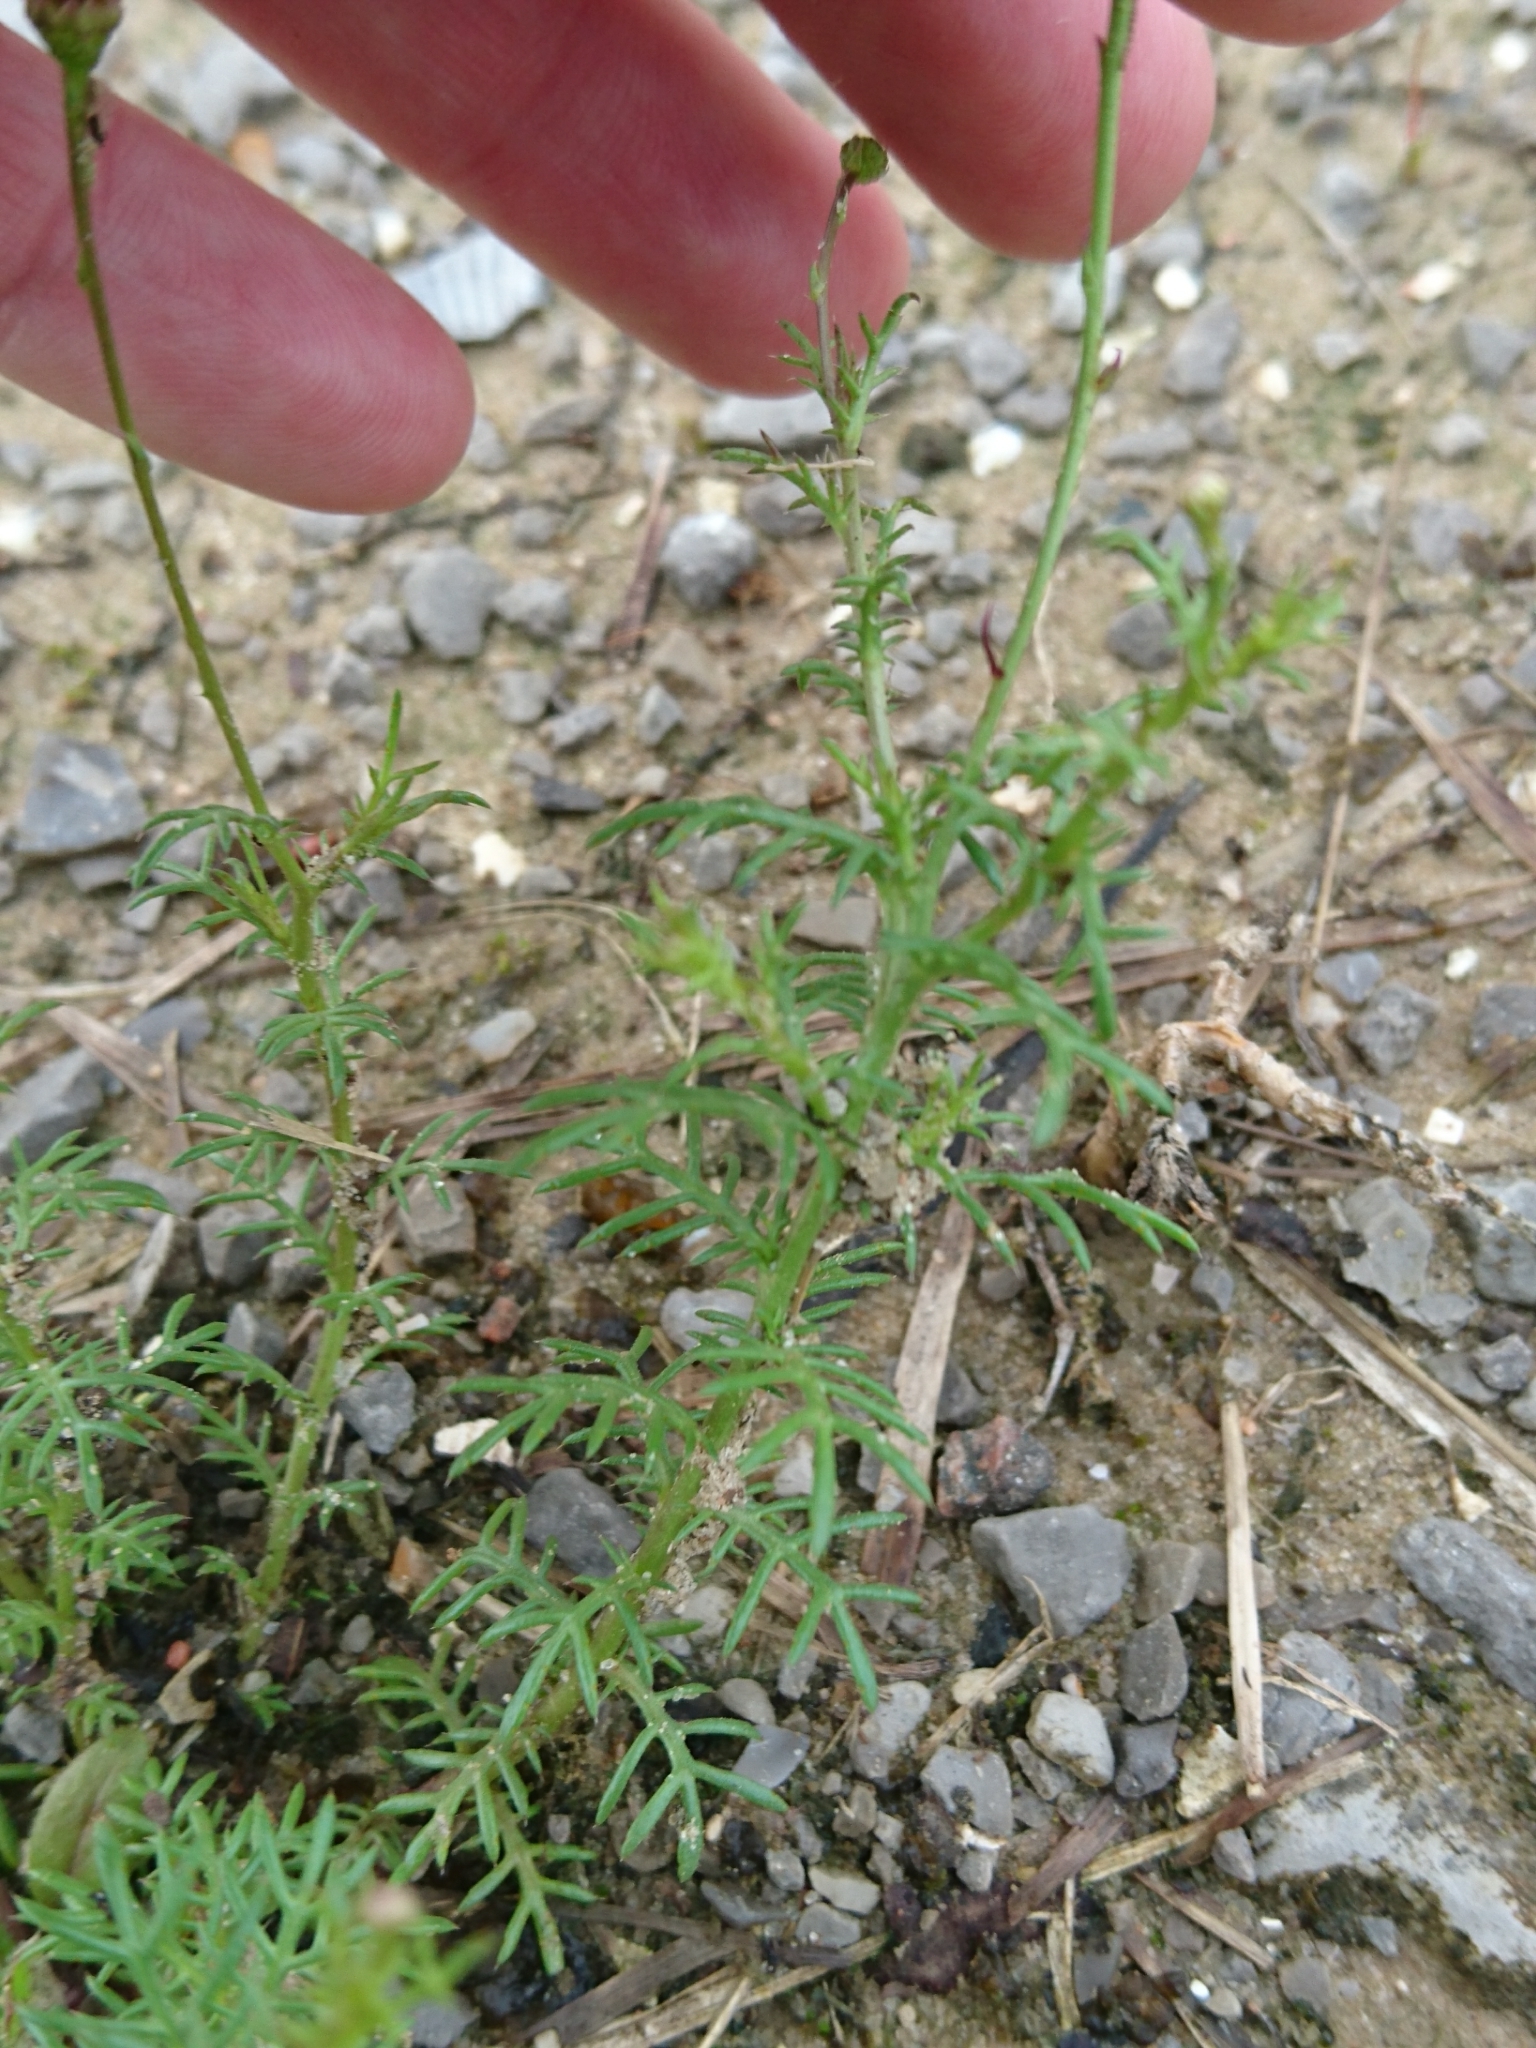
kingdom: Plantae
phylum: Tracheophyta
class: Magnoliopsida
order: Asterales
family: Asteraceae
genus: Thymophylla
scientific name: Thymophylla tenuiloba
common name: Dahlberg's daisy
